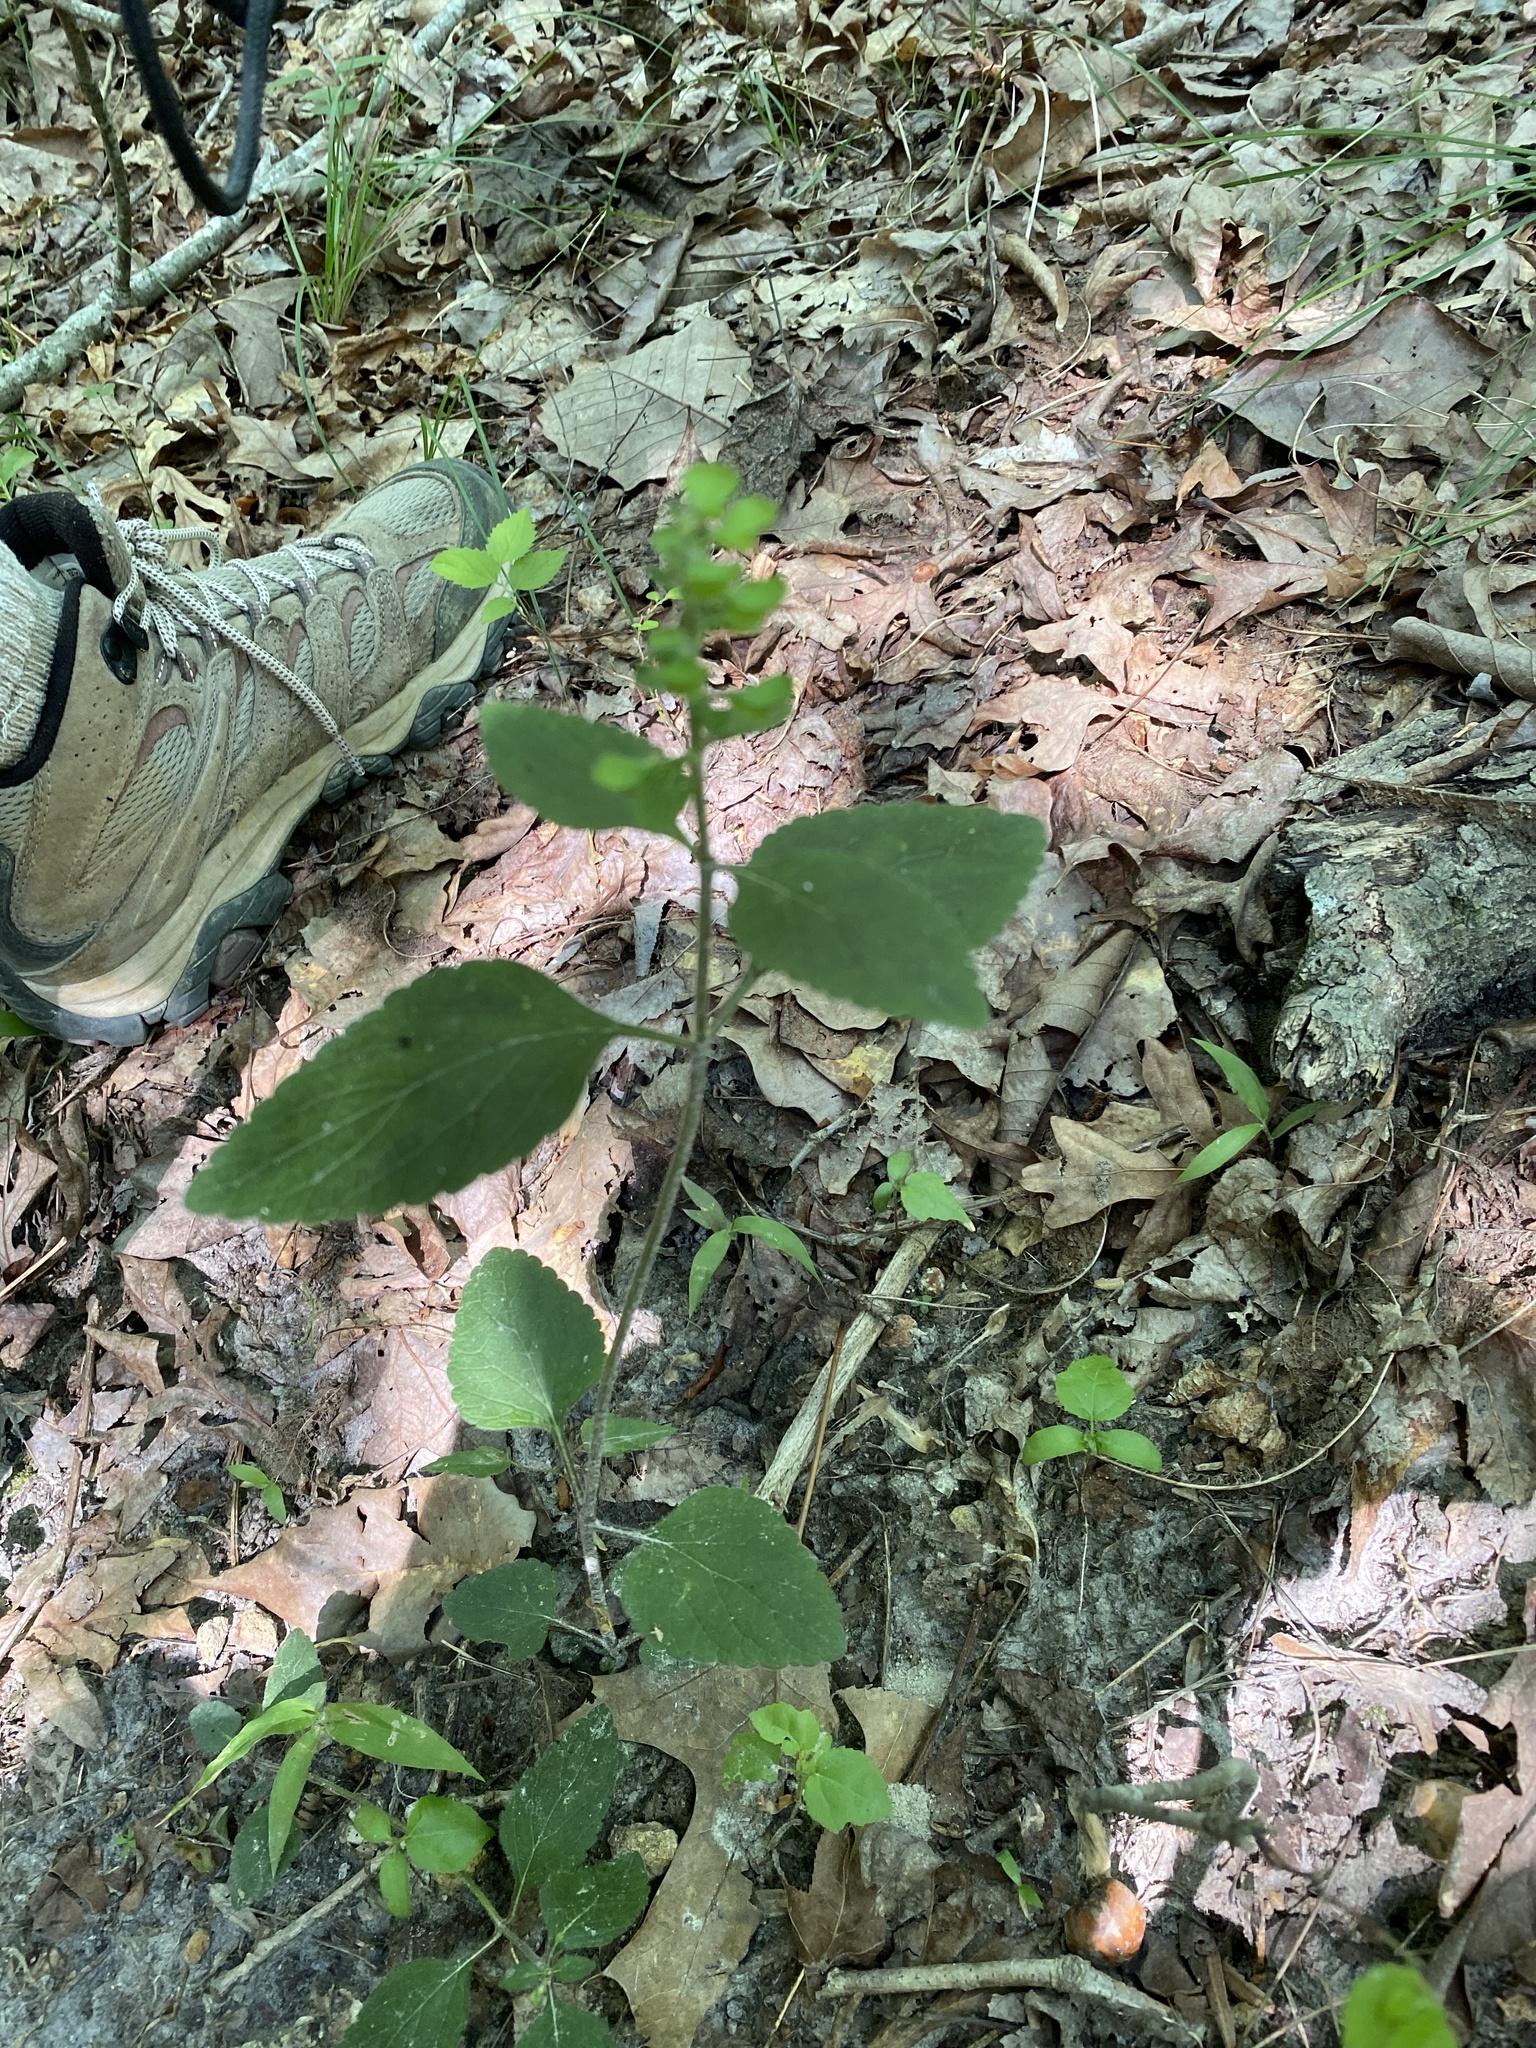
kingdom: Plantae
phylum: Tracheophyta
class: Magnoliopsida
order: Lamiales
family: Lamiaceae
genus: Scutellaria
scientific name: Scutellaria elliptica
